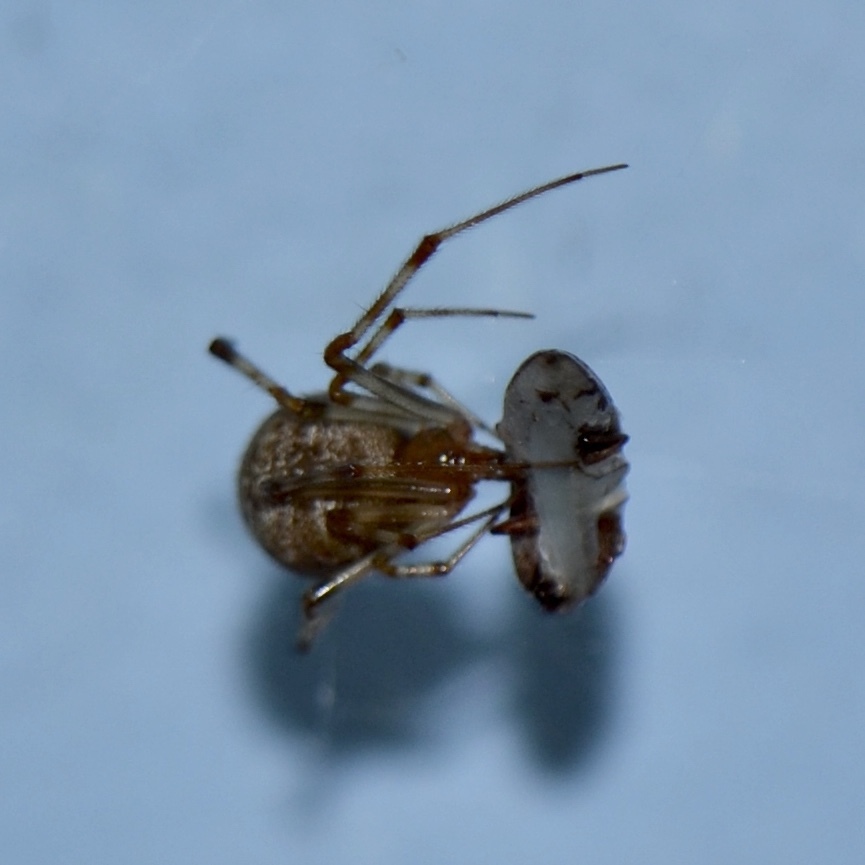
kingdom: Animalia
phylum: Arthropoda
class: Arachnida
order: Araneae
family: Theridiidae
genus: Parasteatoda
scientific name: Parasteatoda tepidariorum
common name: Common house spider
